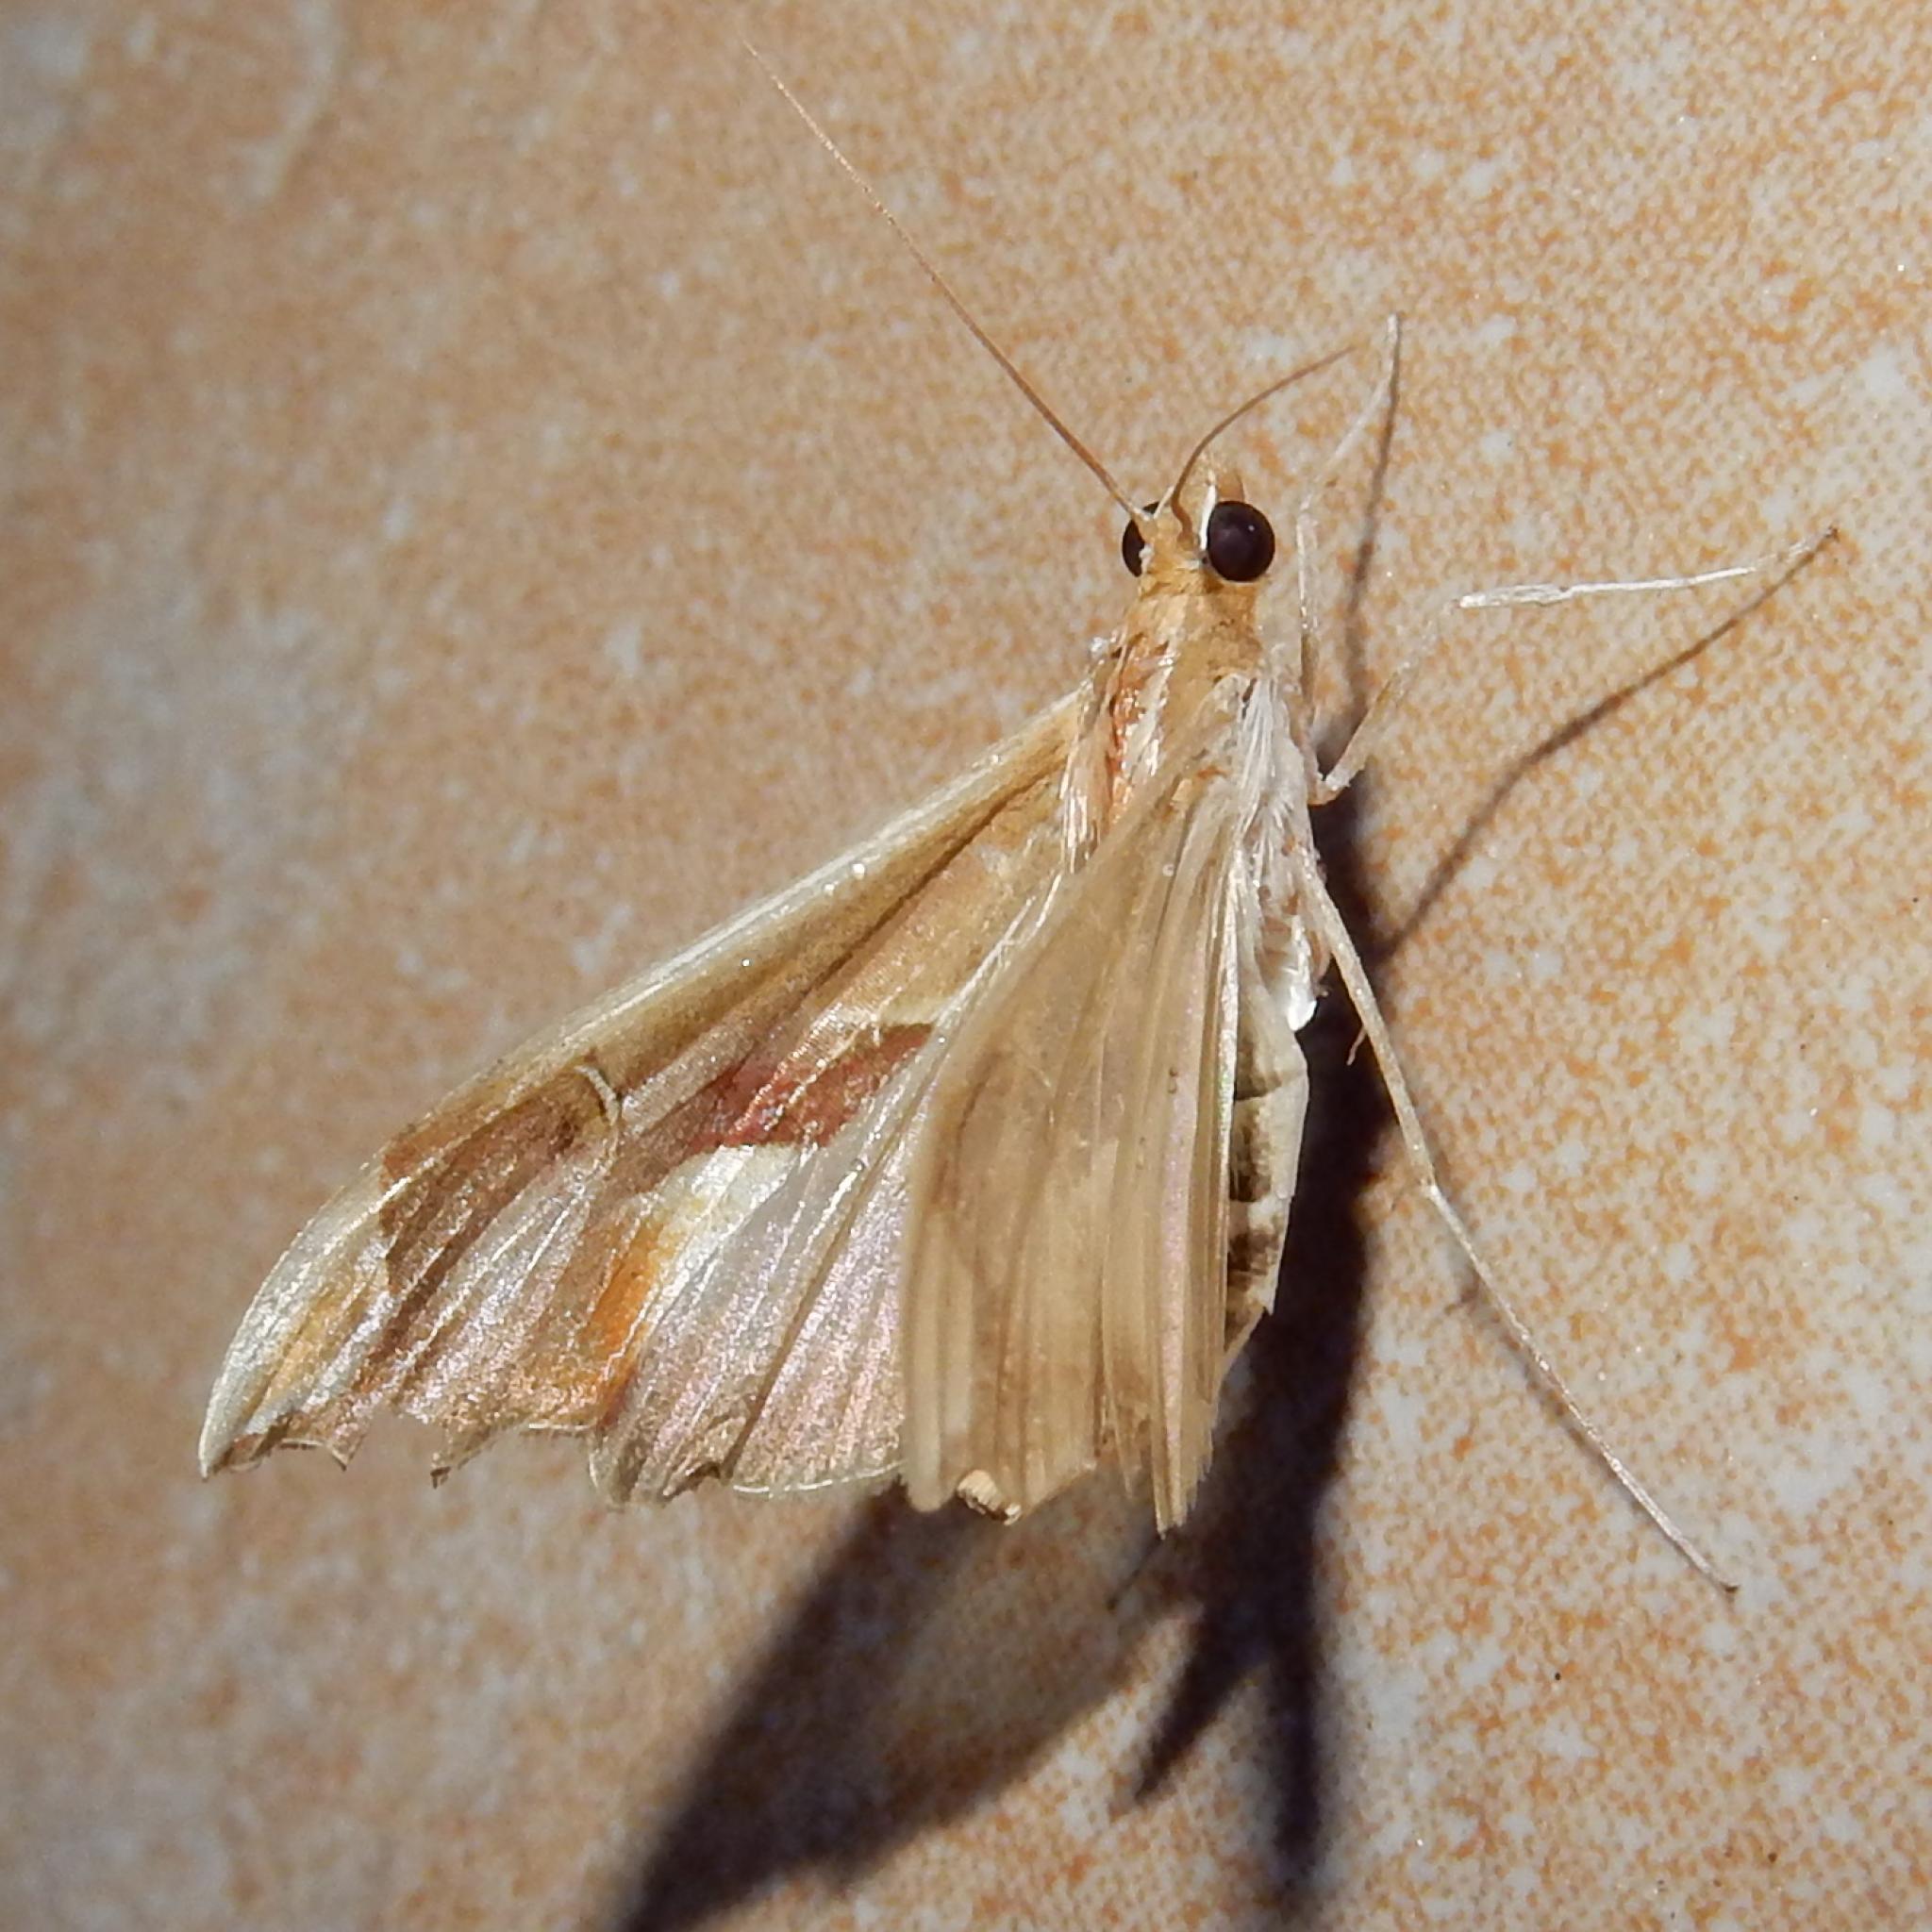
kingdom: Animalia
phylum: Arthropoda
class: Insecta
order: Lepidoptera
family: Crambidae
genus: Agathodes
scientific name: Agathodes musivalis
